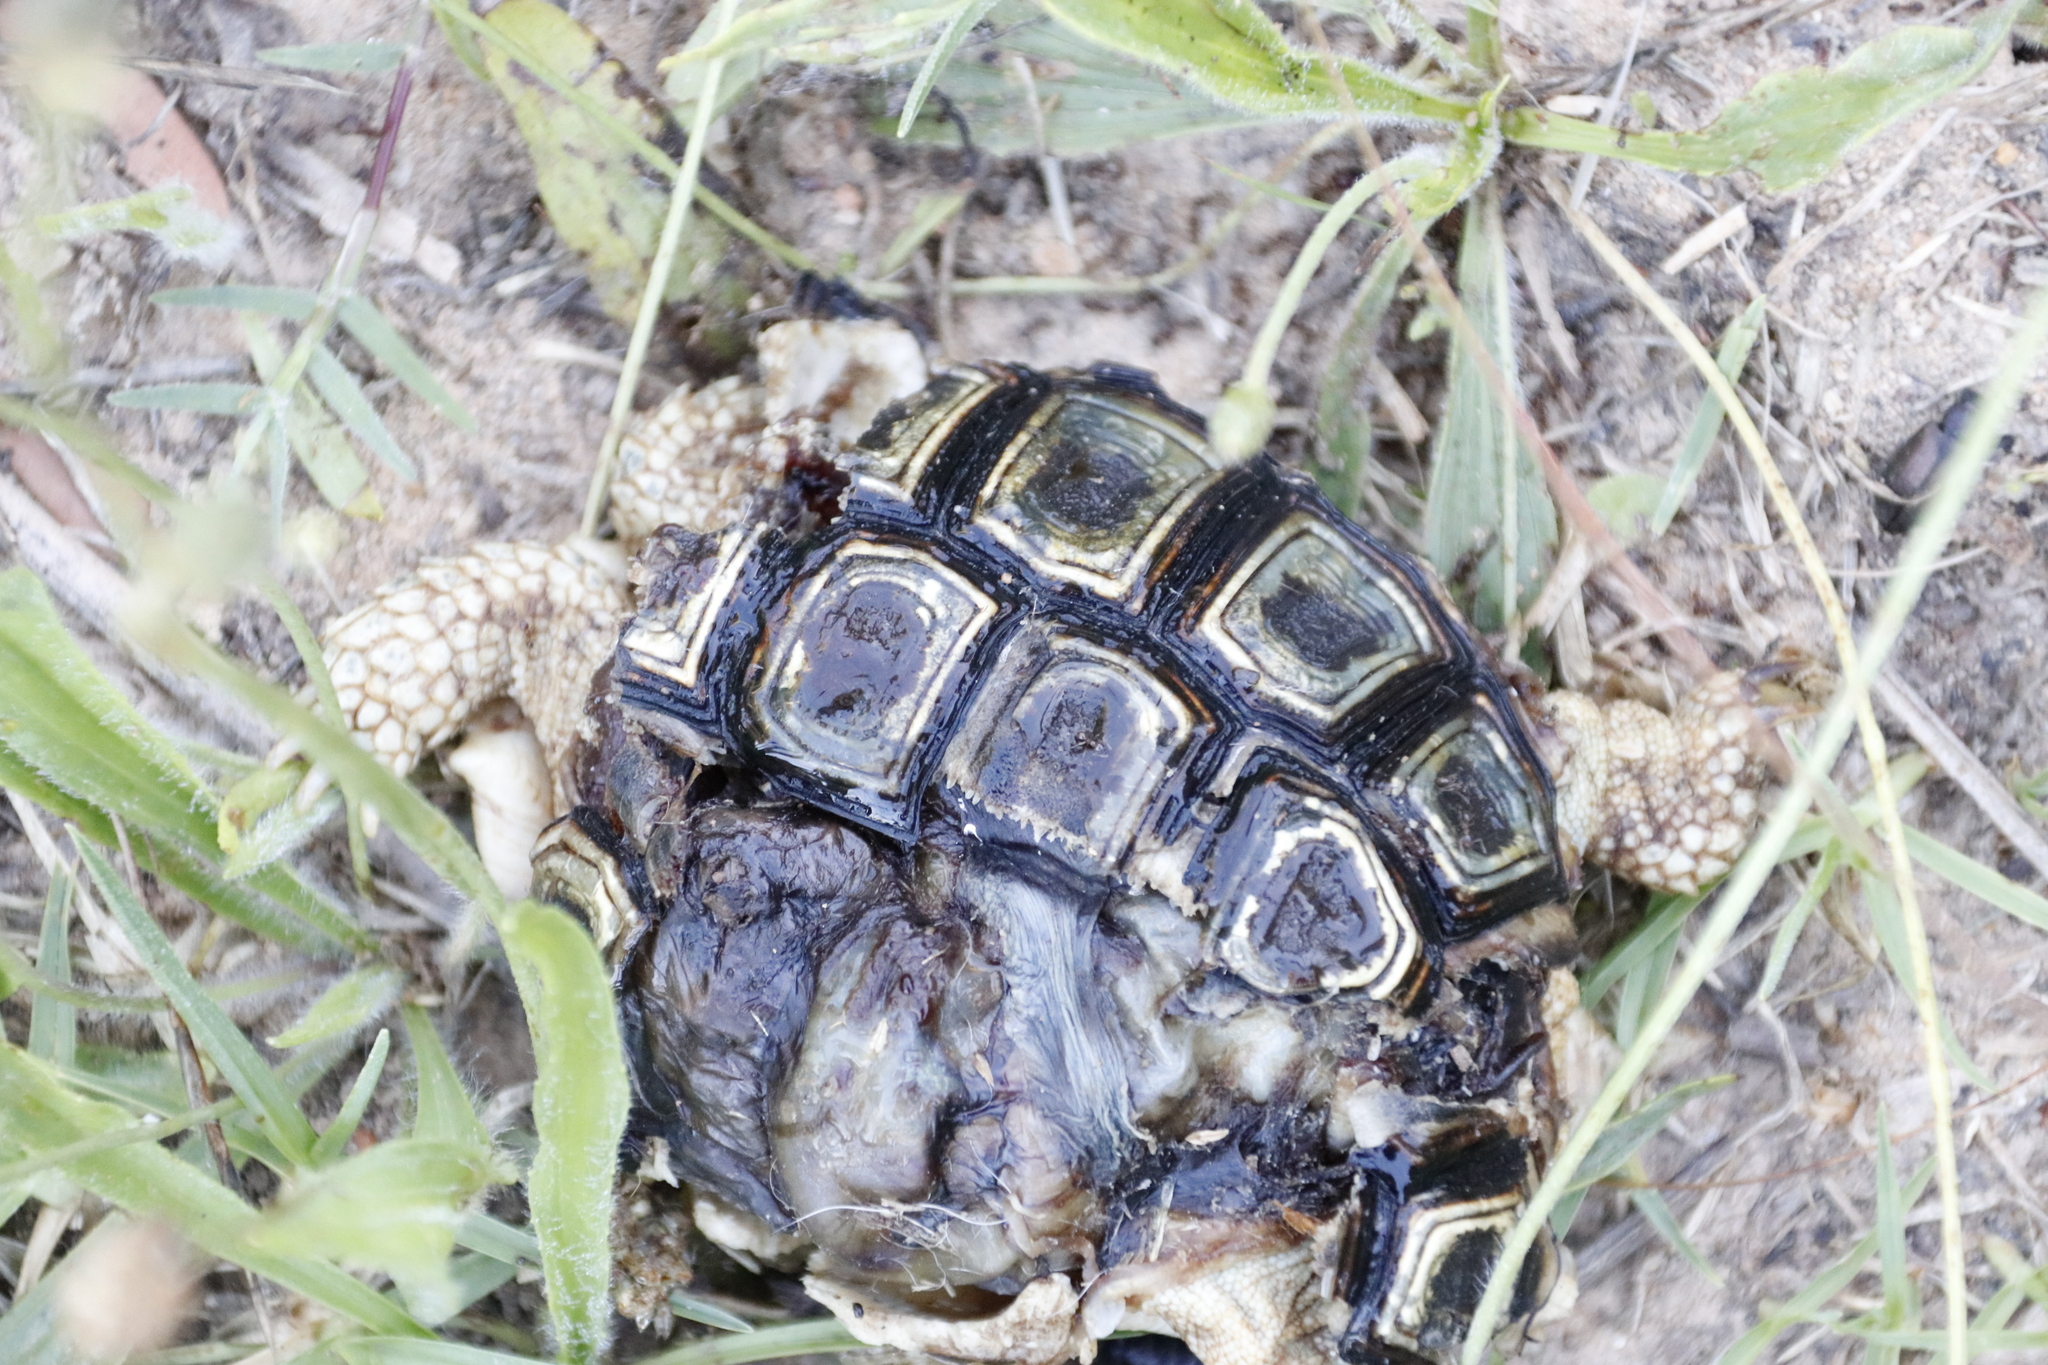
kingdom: Animalia
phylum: Chordata
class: Testudines
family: Testudinidae
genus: Homopus
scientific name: Homopus areolatus
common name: Parrot-beaked tortoise
